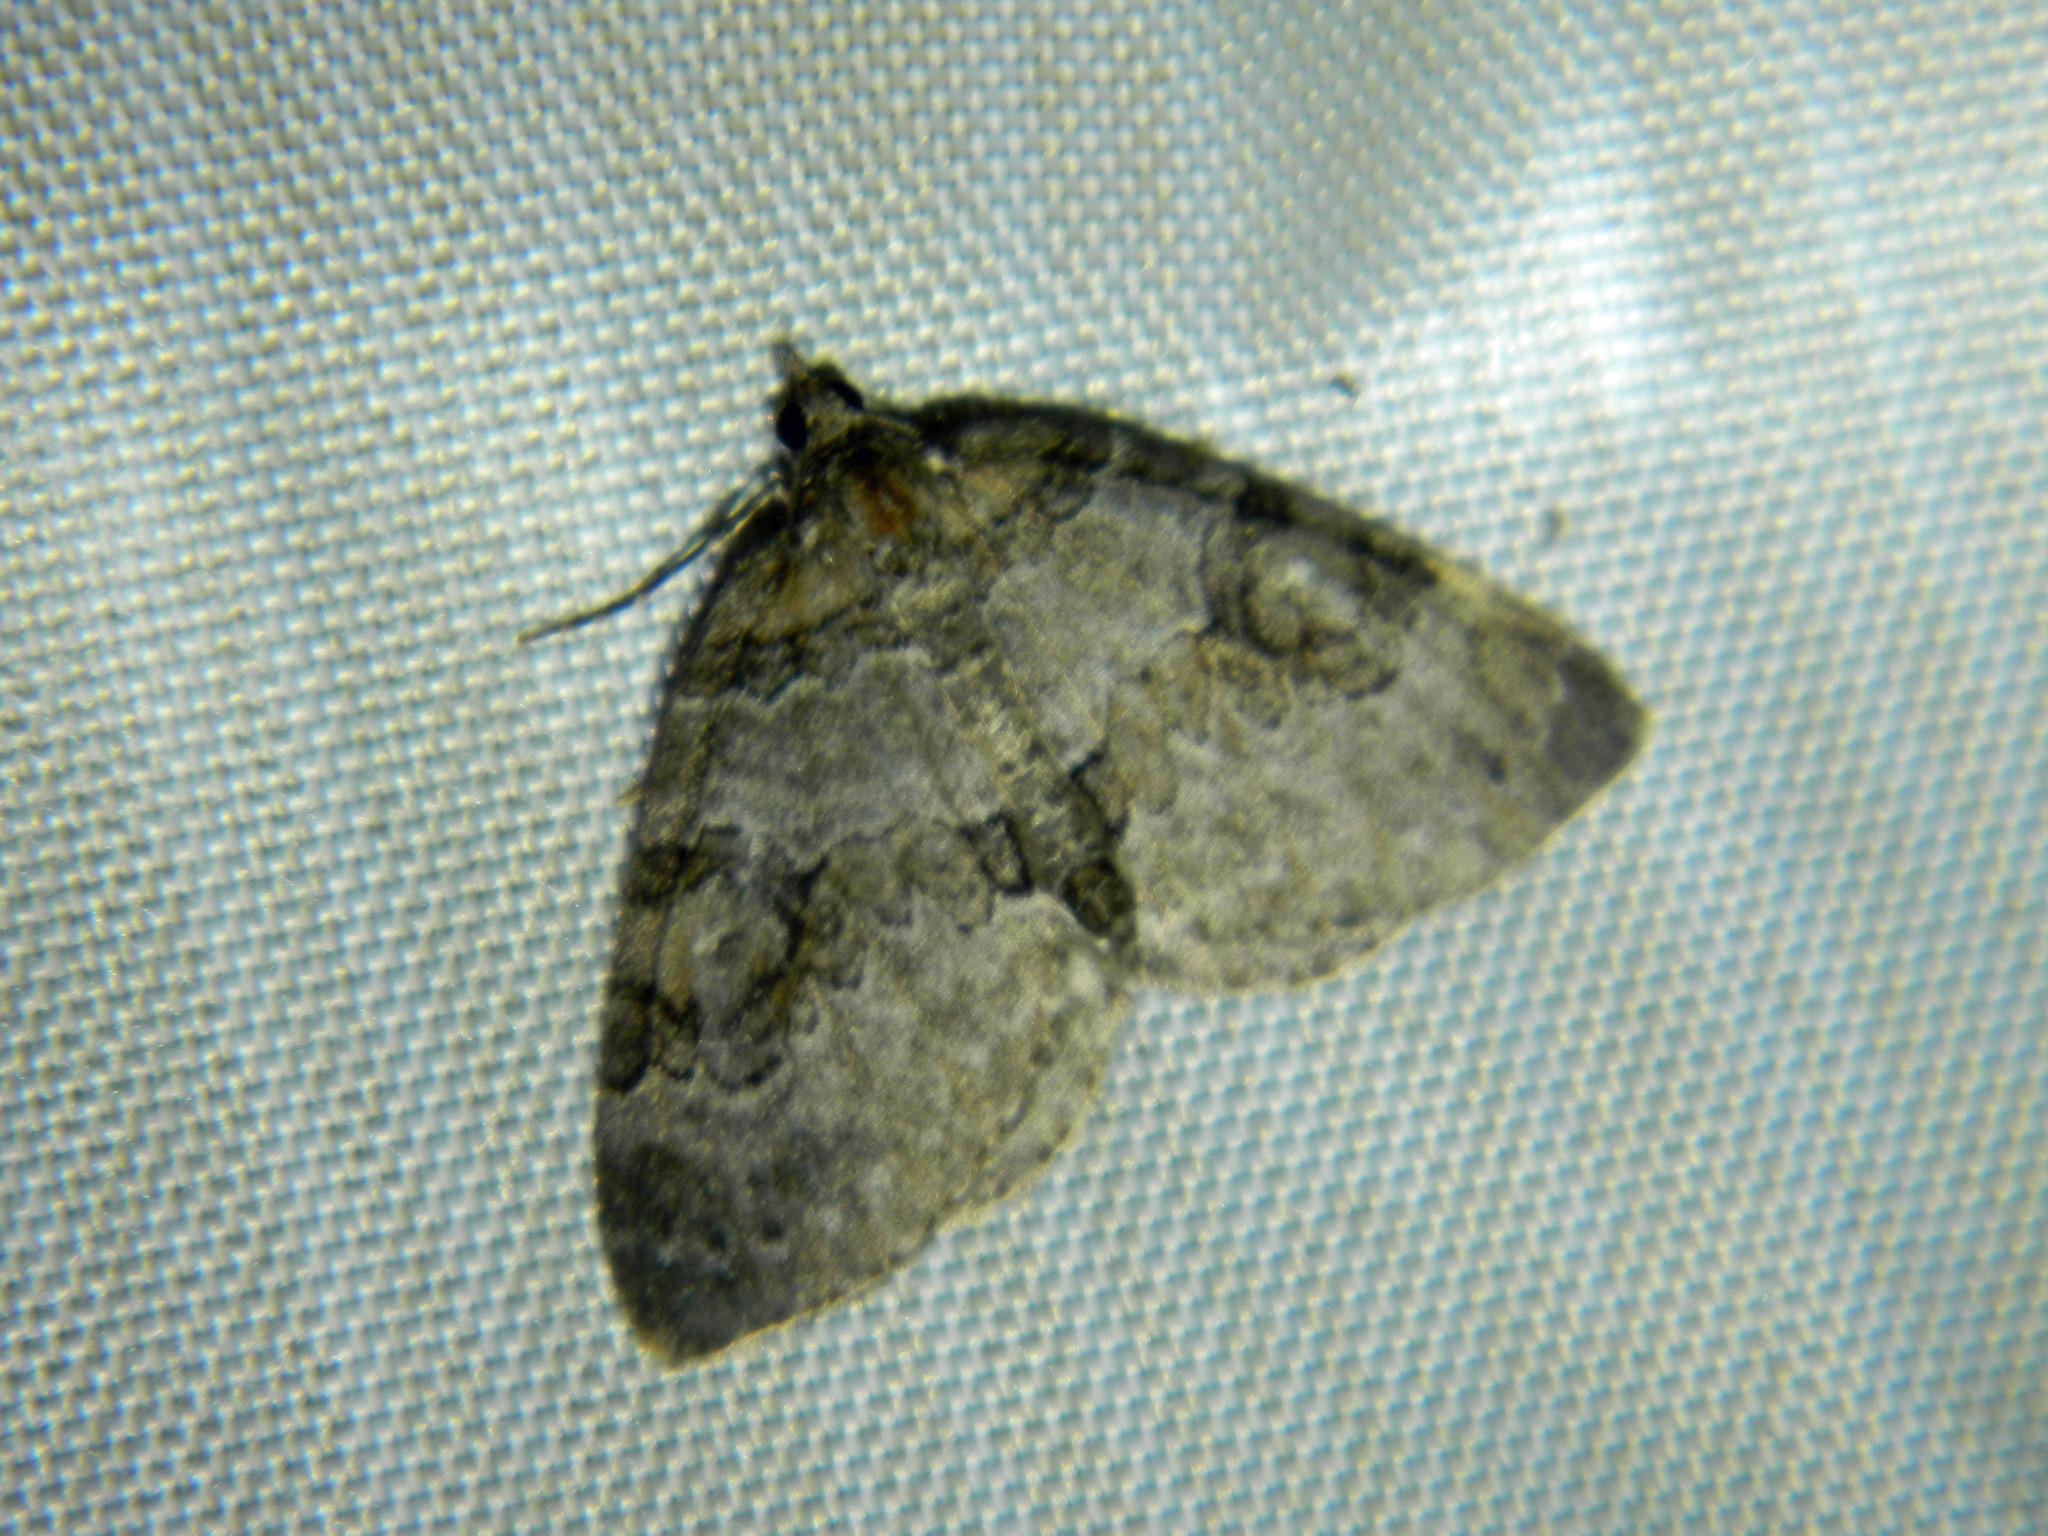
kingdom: Animalia
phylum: Arthropoda
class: Insecta
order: Lepidoptera
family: Geometridae
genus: Plemyria
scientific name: Plemyria georgii
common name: George's carpet moth
